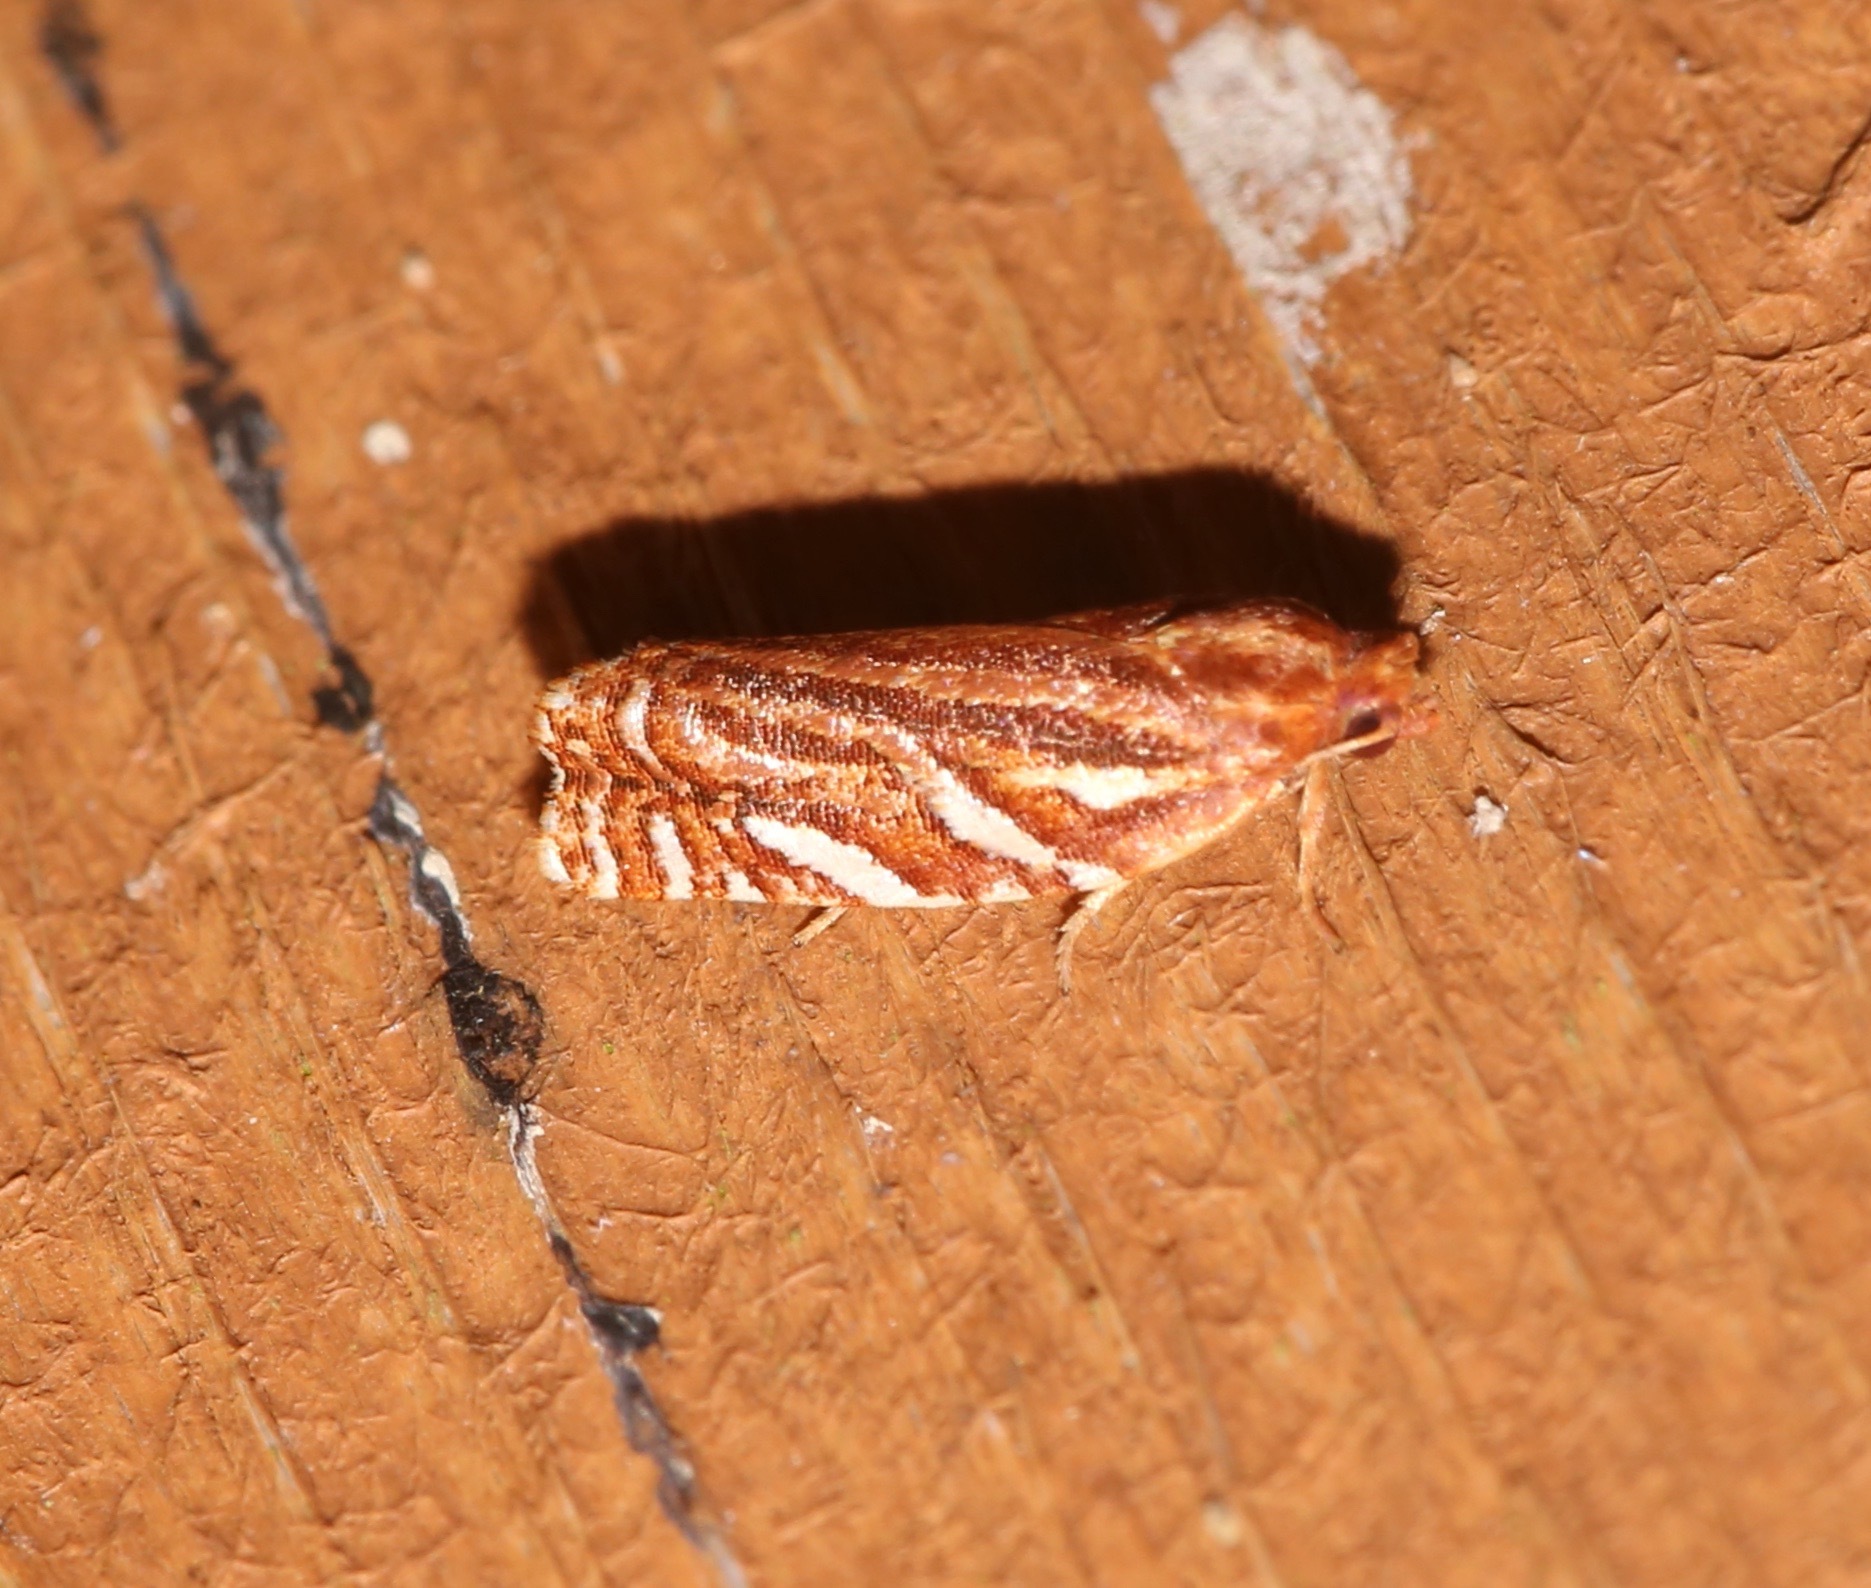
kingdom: Animalia
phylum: Arthropoda
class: Insecta
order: Lepidoptera
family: Tortricidae
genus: Choristoneura
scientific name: Choristoneura argentifasciata
